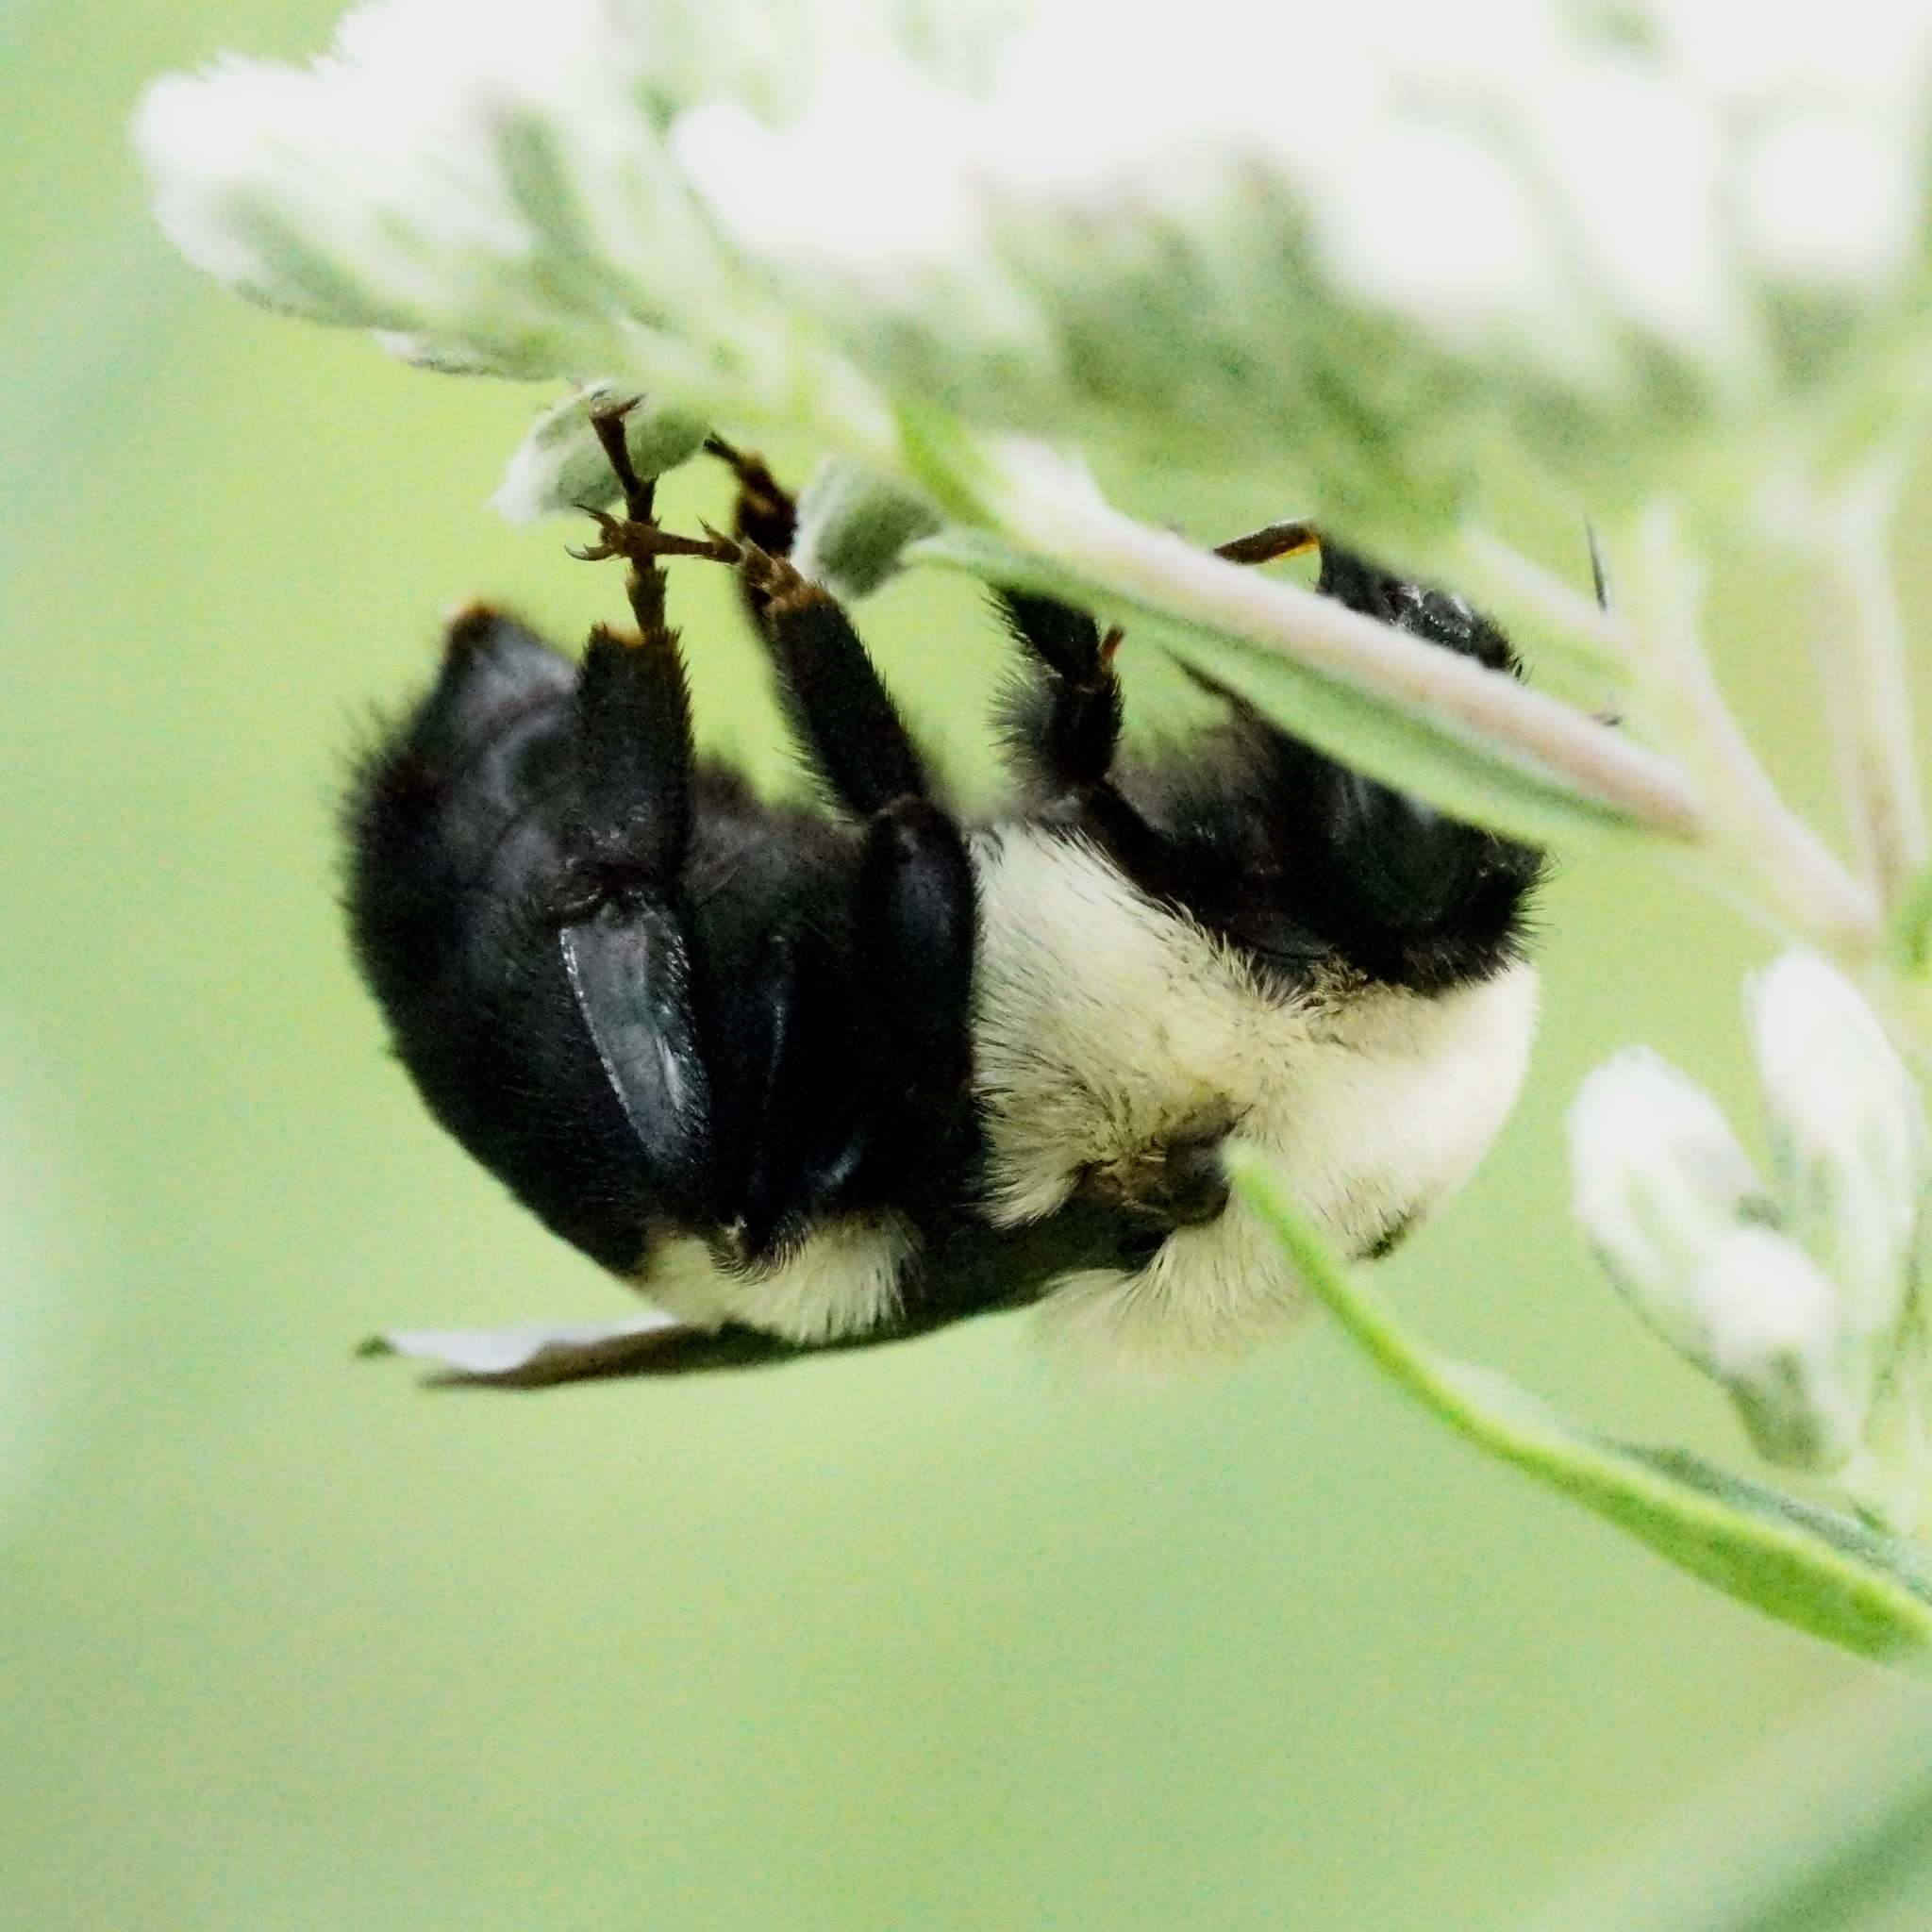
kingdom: Animalia
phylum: Arthropoda
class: Insecta
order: Hymenoptera
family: Apidae
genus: Bombus
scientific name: Bombus griseocollis
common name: Brown-belted bumble bee
